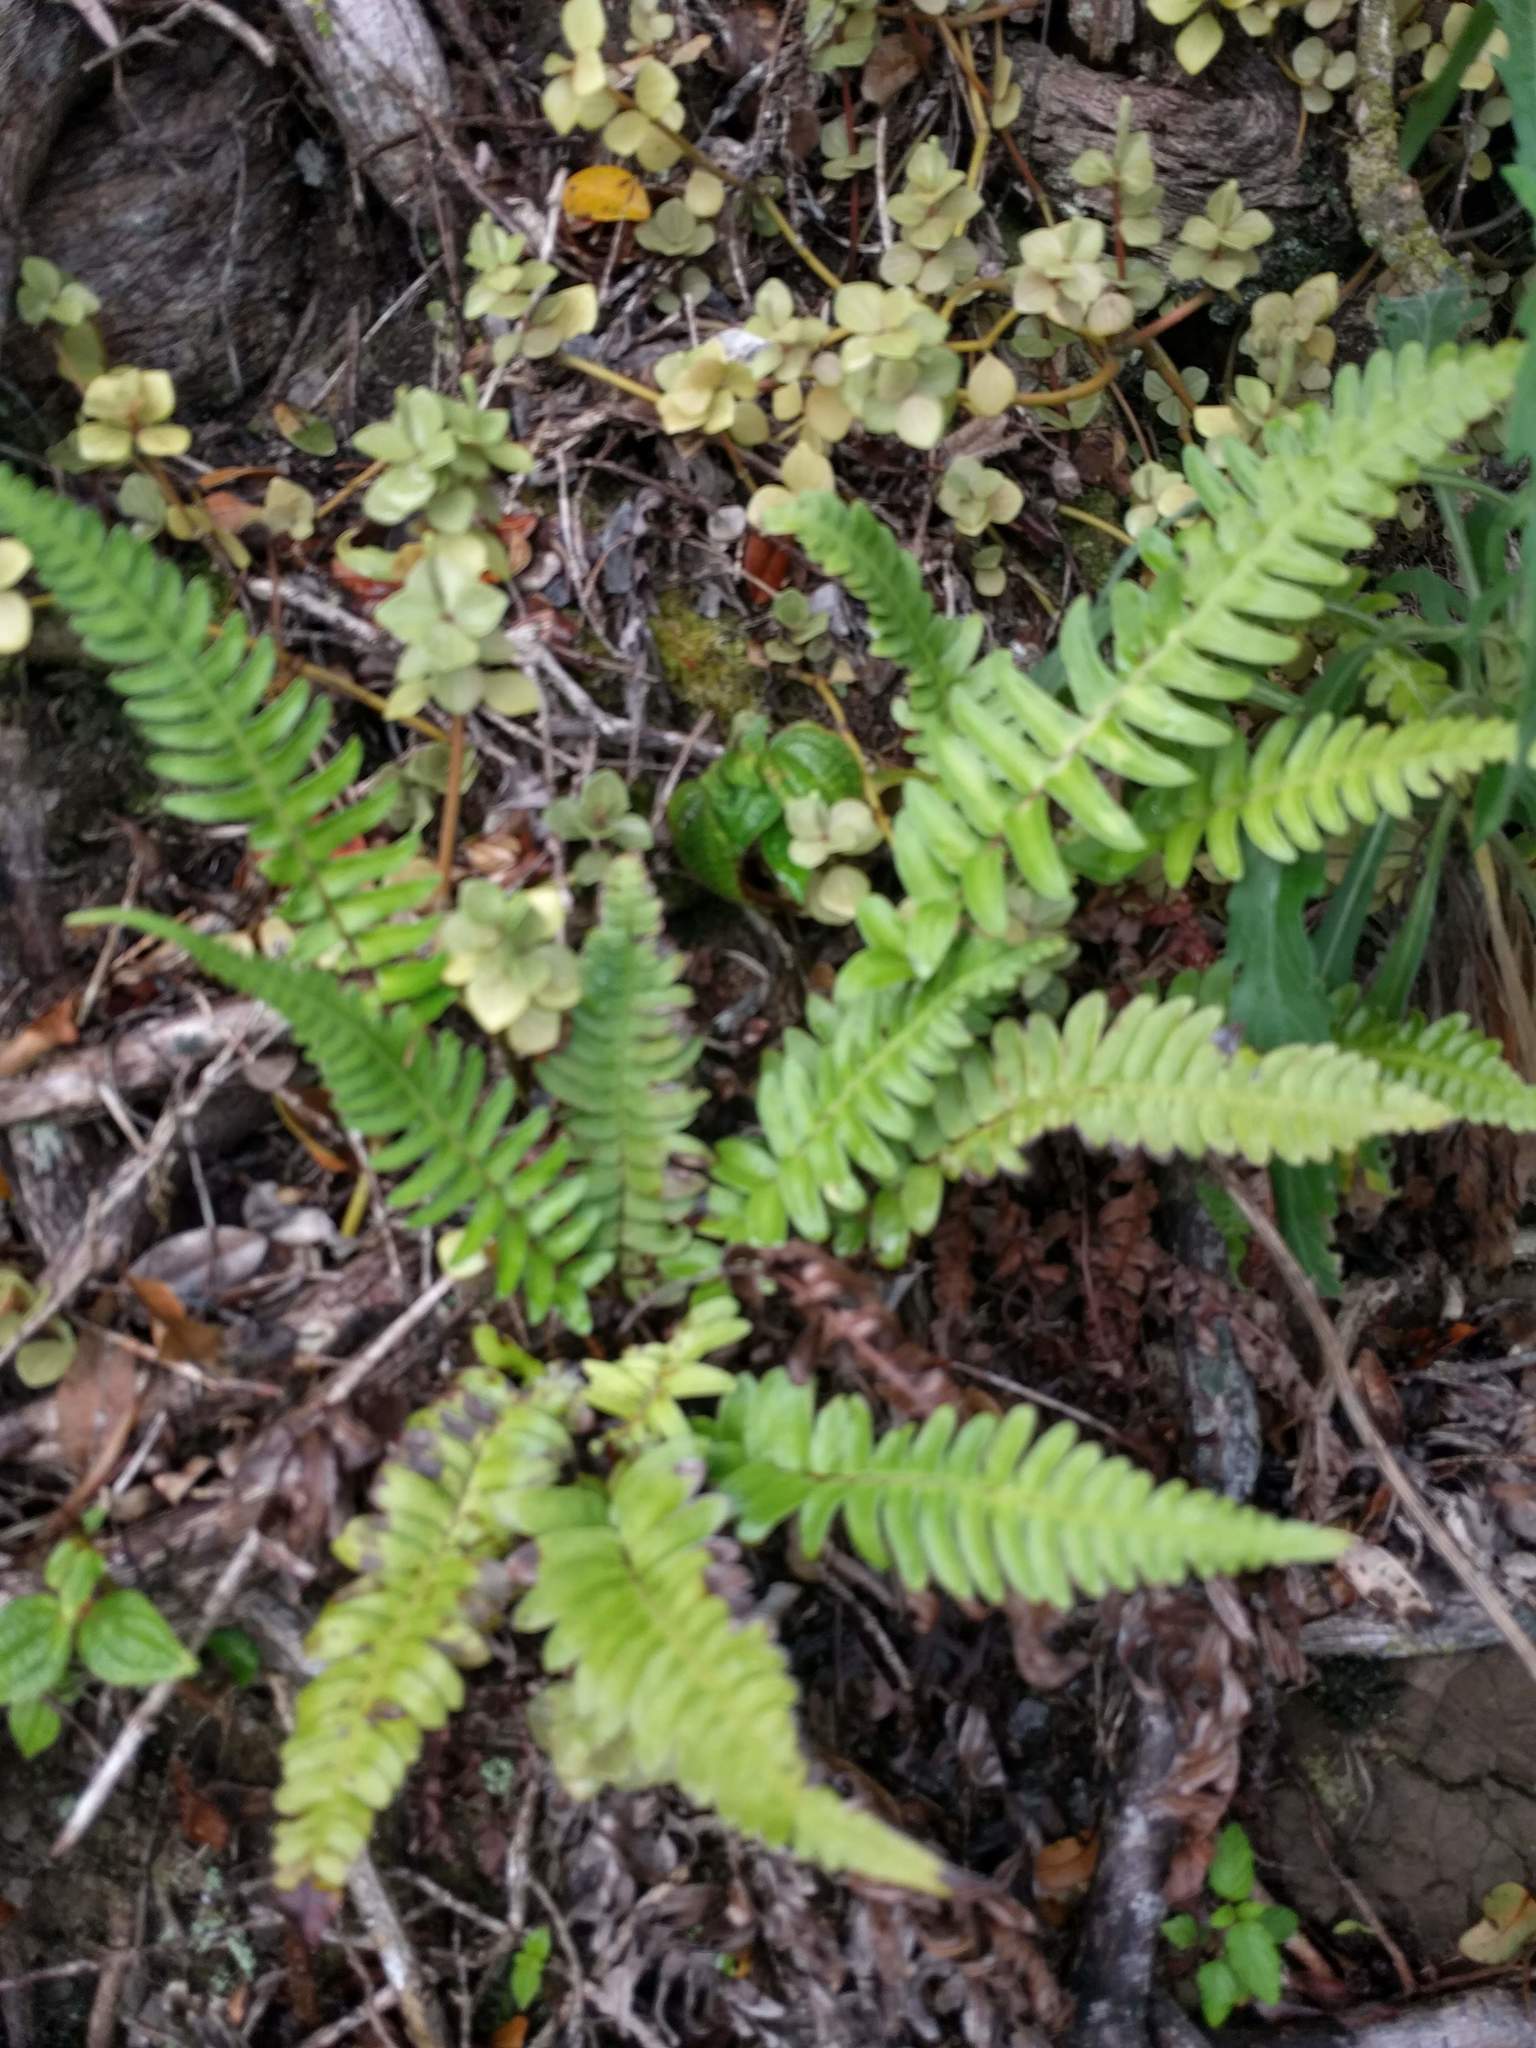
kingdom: Plantae
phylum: Tracheophyta
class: Polypodiopsida
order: Polypodiales
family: Blechnaceae
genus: Blechnum
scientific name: Blechnum appendiculatum
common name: Palm fern
